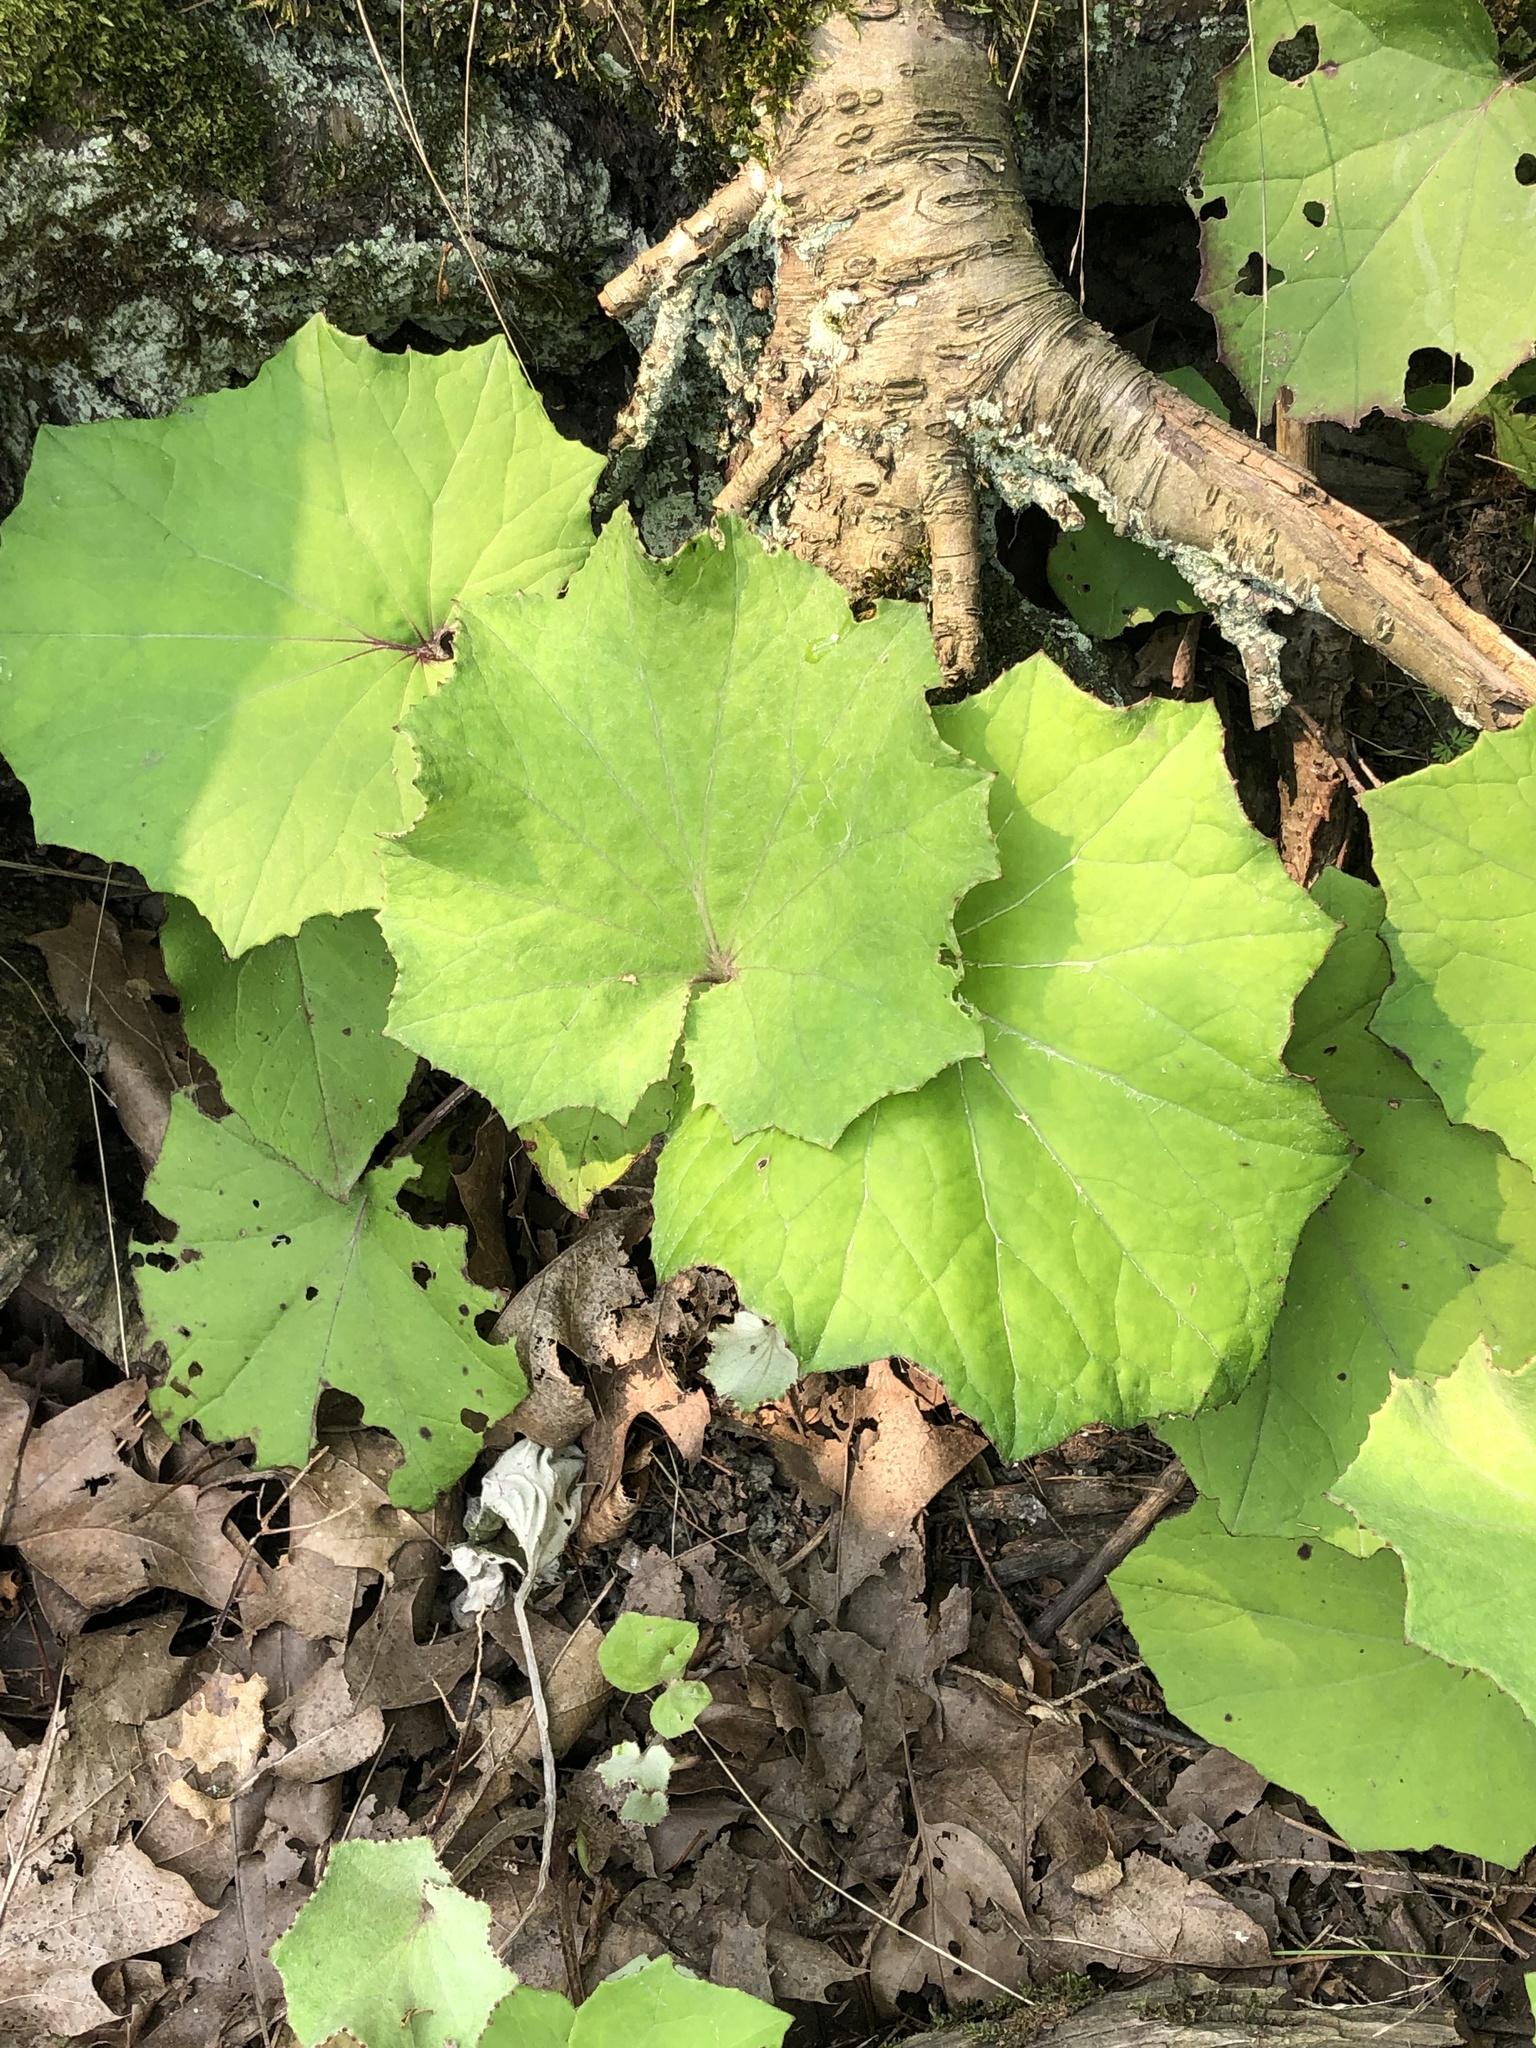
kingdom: Plantae
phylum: Tracheophyta
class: Magnoliopsida
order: Asterales
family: Asteraceae
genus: Tussilago
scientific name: Tussilago farfara
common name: Coltsfoot
